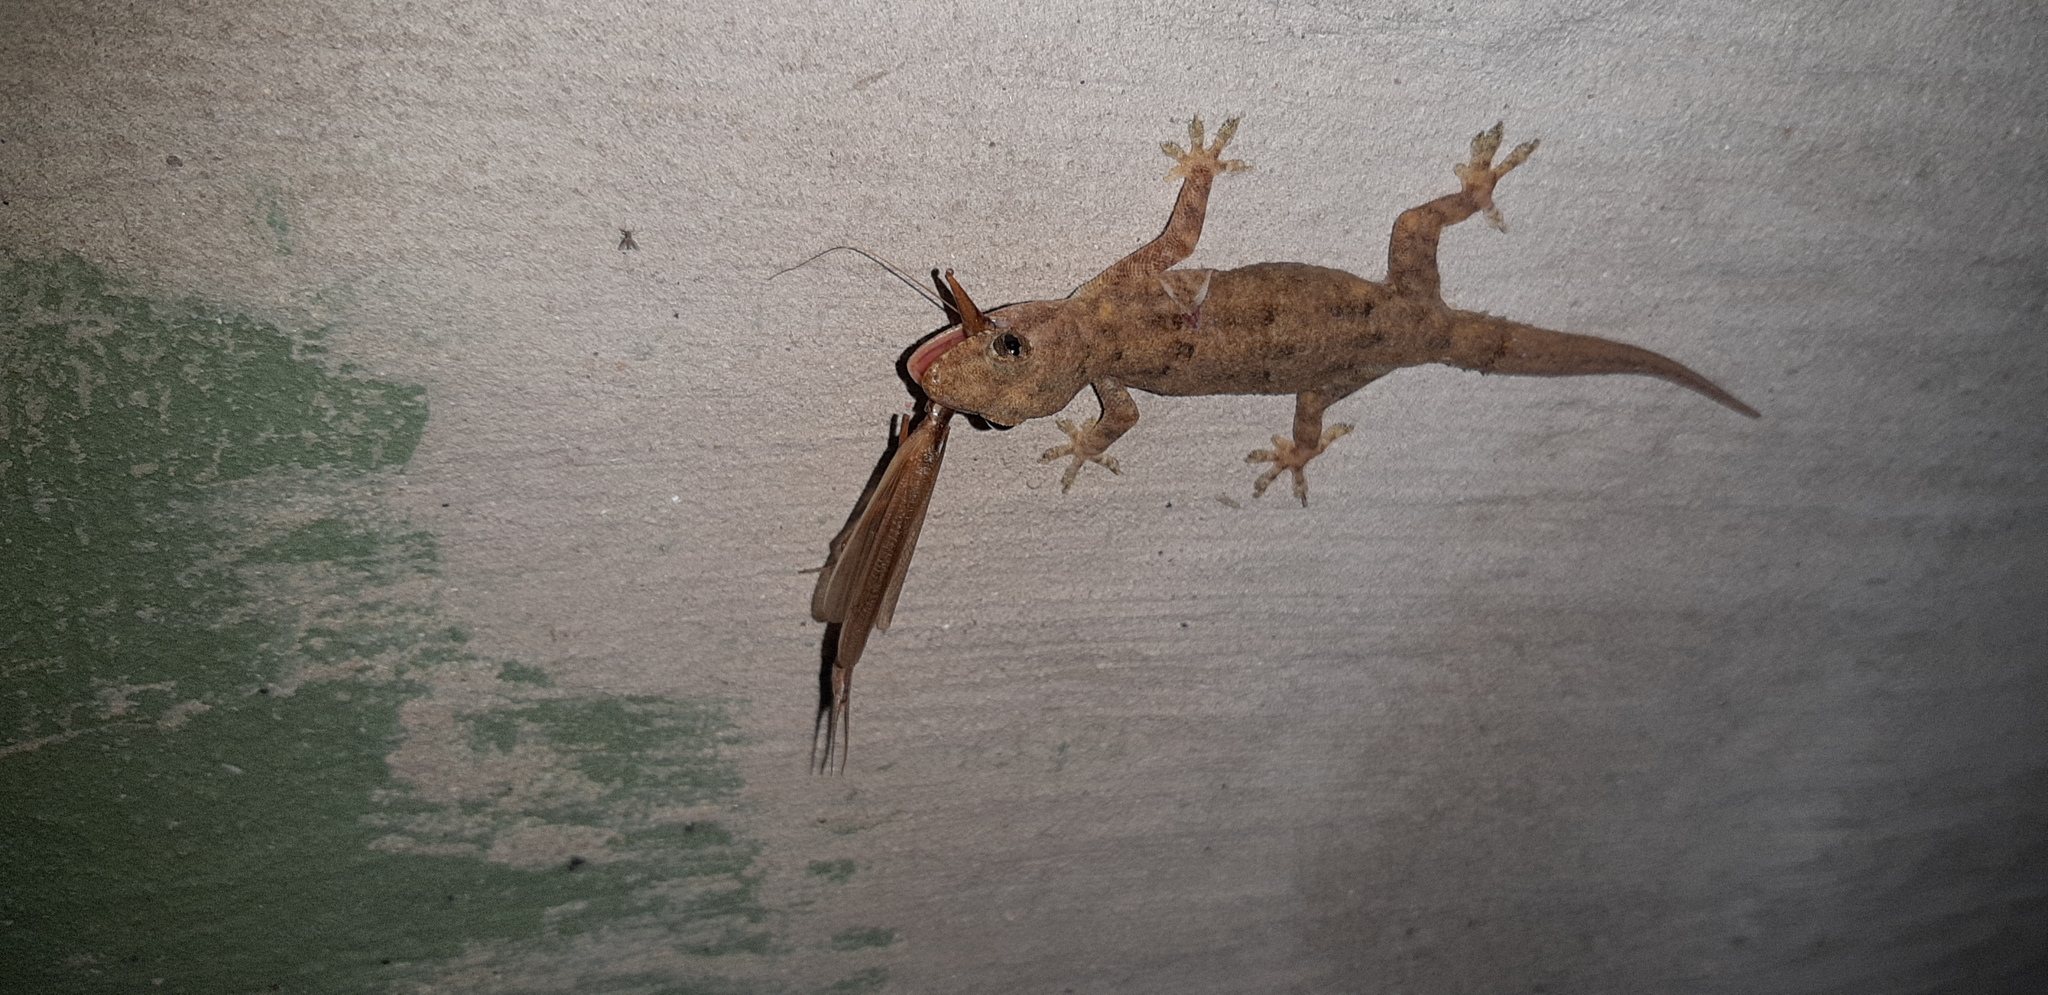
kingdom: Animalia
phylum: Chordata
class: Squamata
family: Gekkonidae
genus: Hemidactylus
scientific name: Hemidactylus mabouia
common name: House gecko
